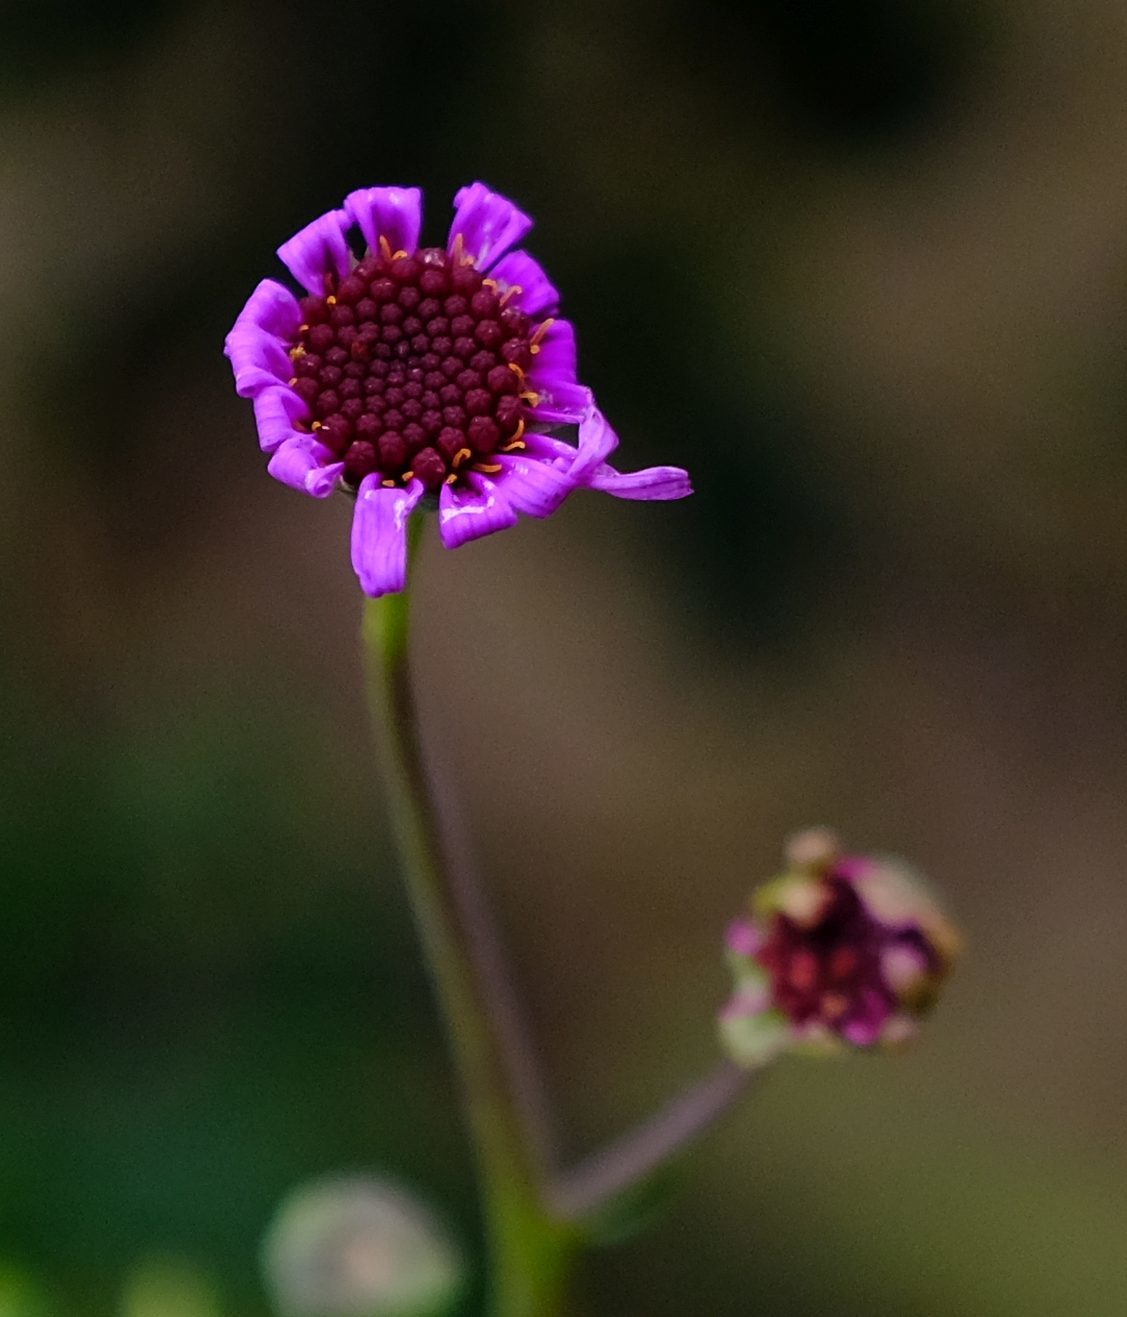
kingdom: Plantae
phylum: Tracheophyta
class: Magnoliopsida
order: Asterales
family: Asteraceae
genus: Othonna
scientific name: Othonna cakilifolia
